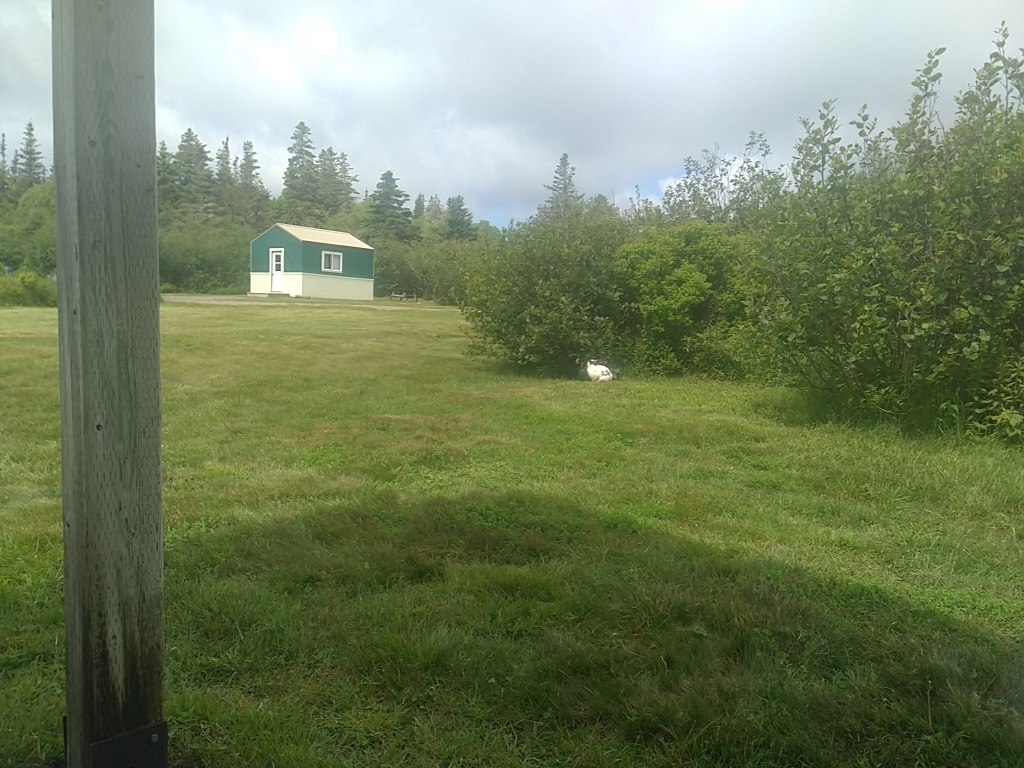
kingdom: Animalia
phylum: Chordata
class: Mammalia
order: Lagomorpha
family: Leporidae
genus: Oryctolagus
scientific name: Oryctolagus cuniculus
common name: European rabbit
